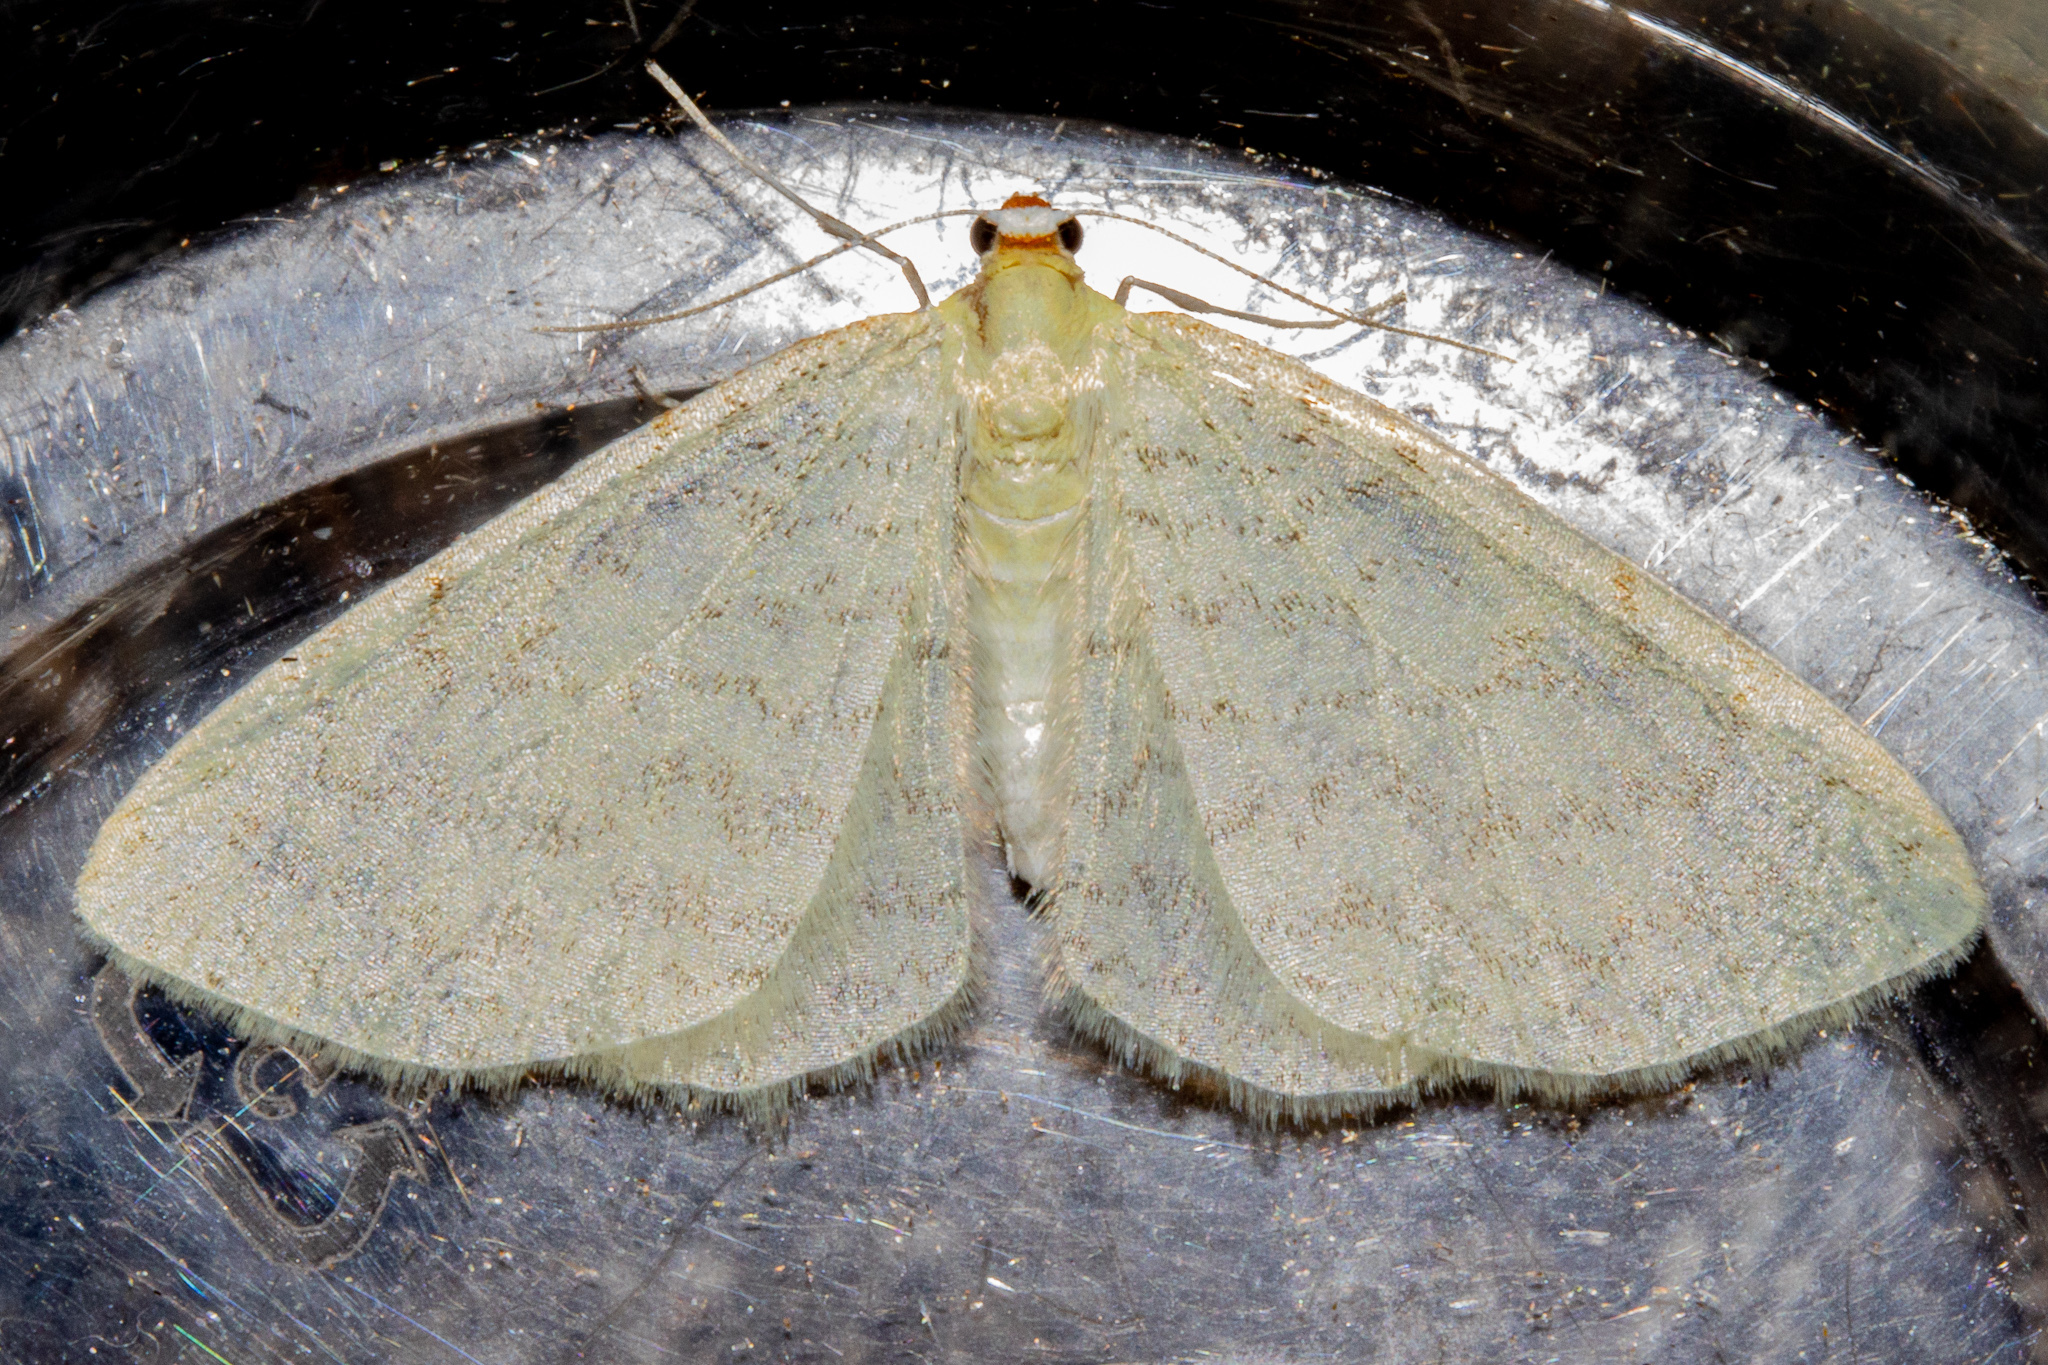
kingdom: Animalia
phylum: Arthropoda
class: Insecta
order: Lepidoptera
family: Geometridae
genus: Epiphryne
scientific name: Epiphryne undosata
